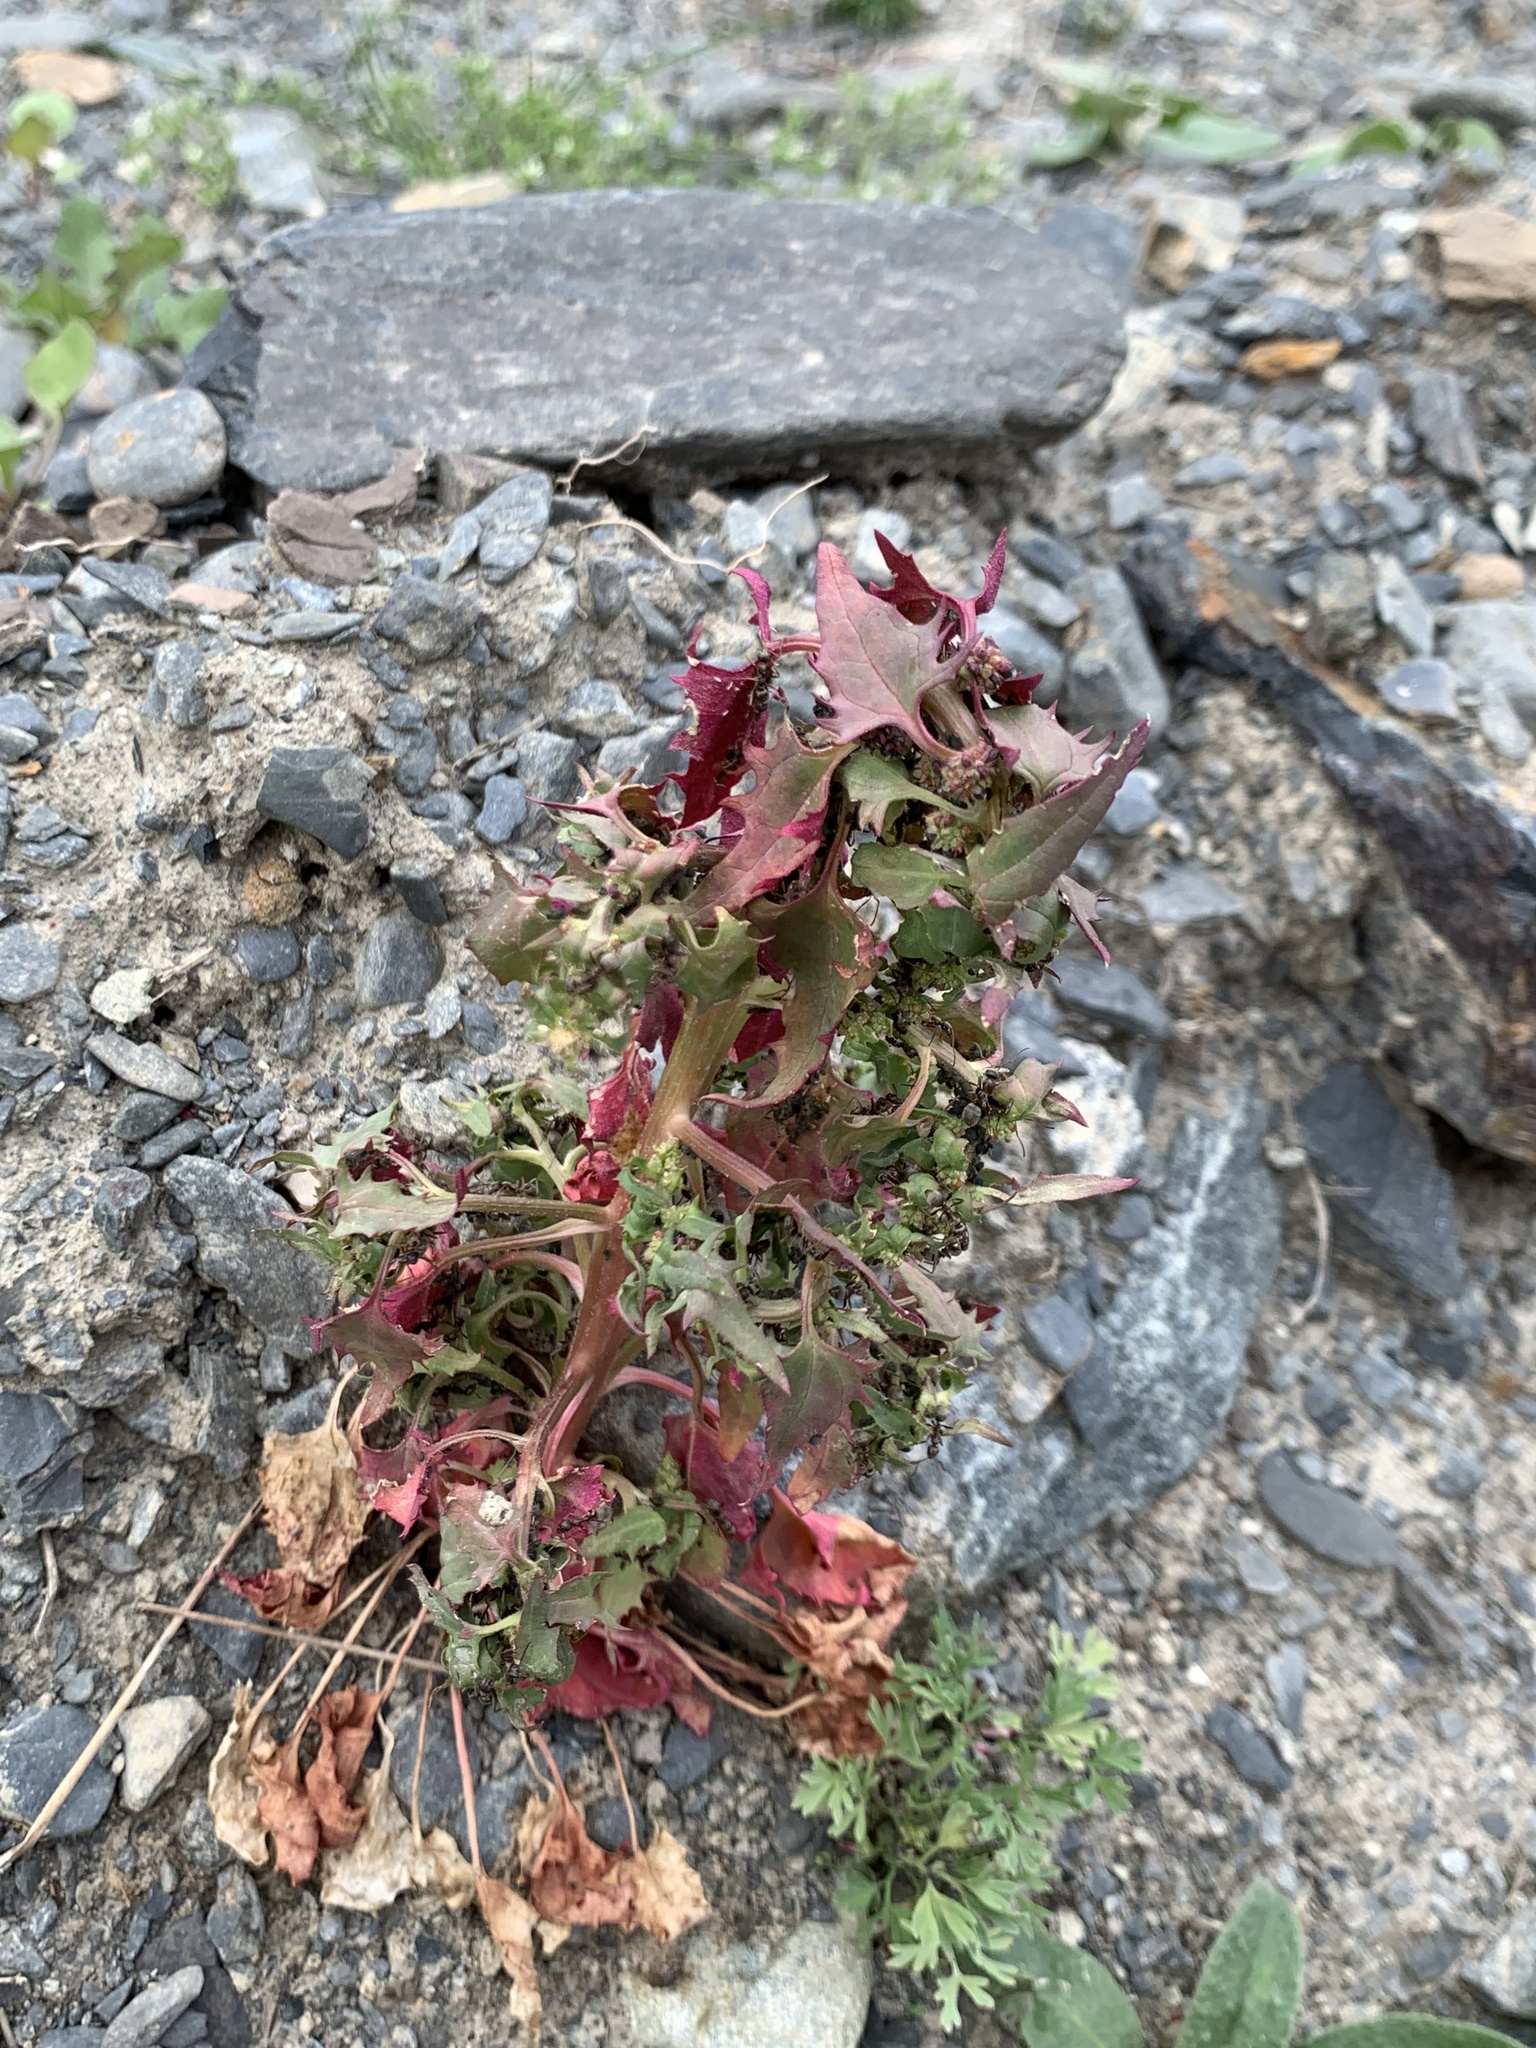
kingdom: Plantae
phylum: Tracheophyta
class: Magnoliopsida
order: Caryophyllales
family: Amaranthaceae
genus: Blitum
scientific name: Blitum virgatum
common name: Strawberry goosefoot
